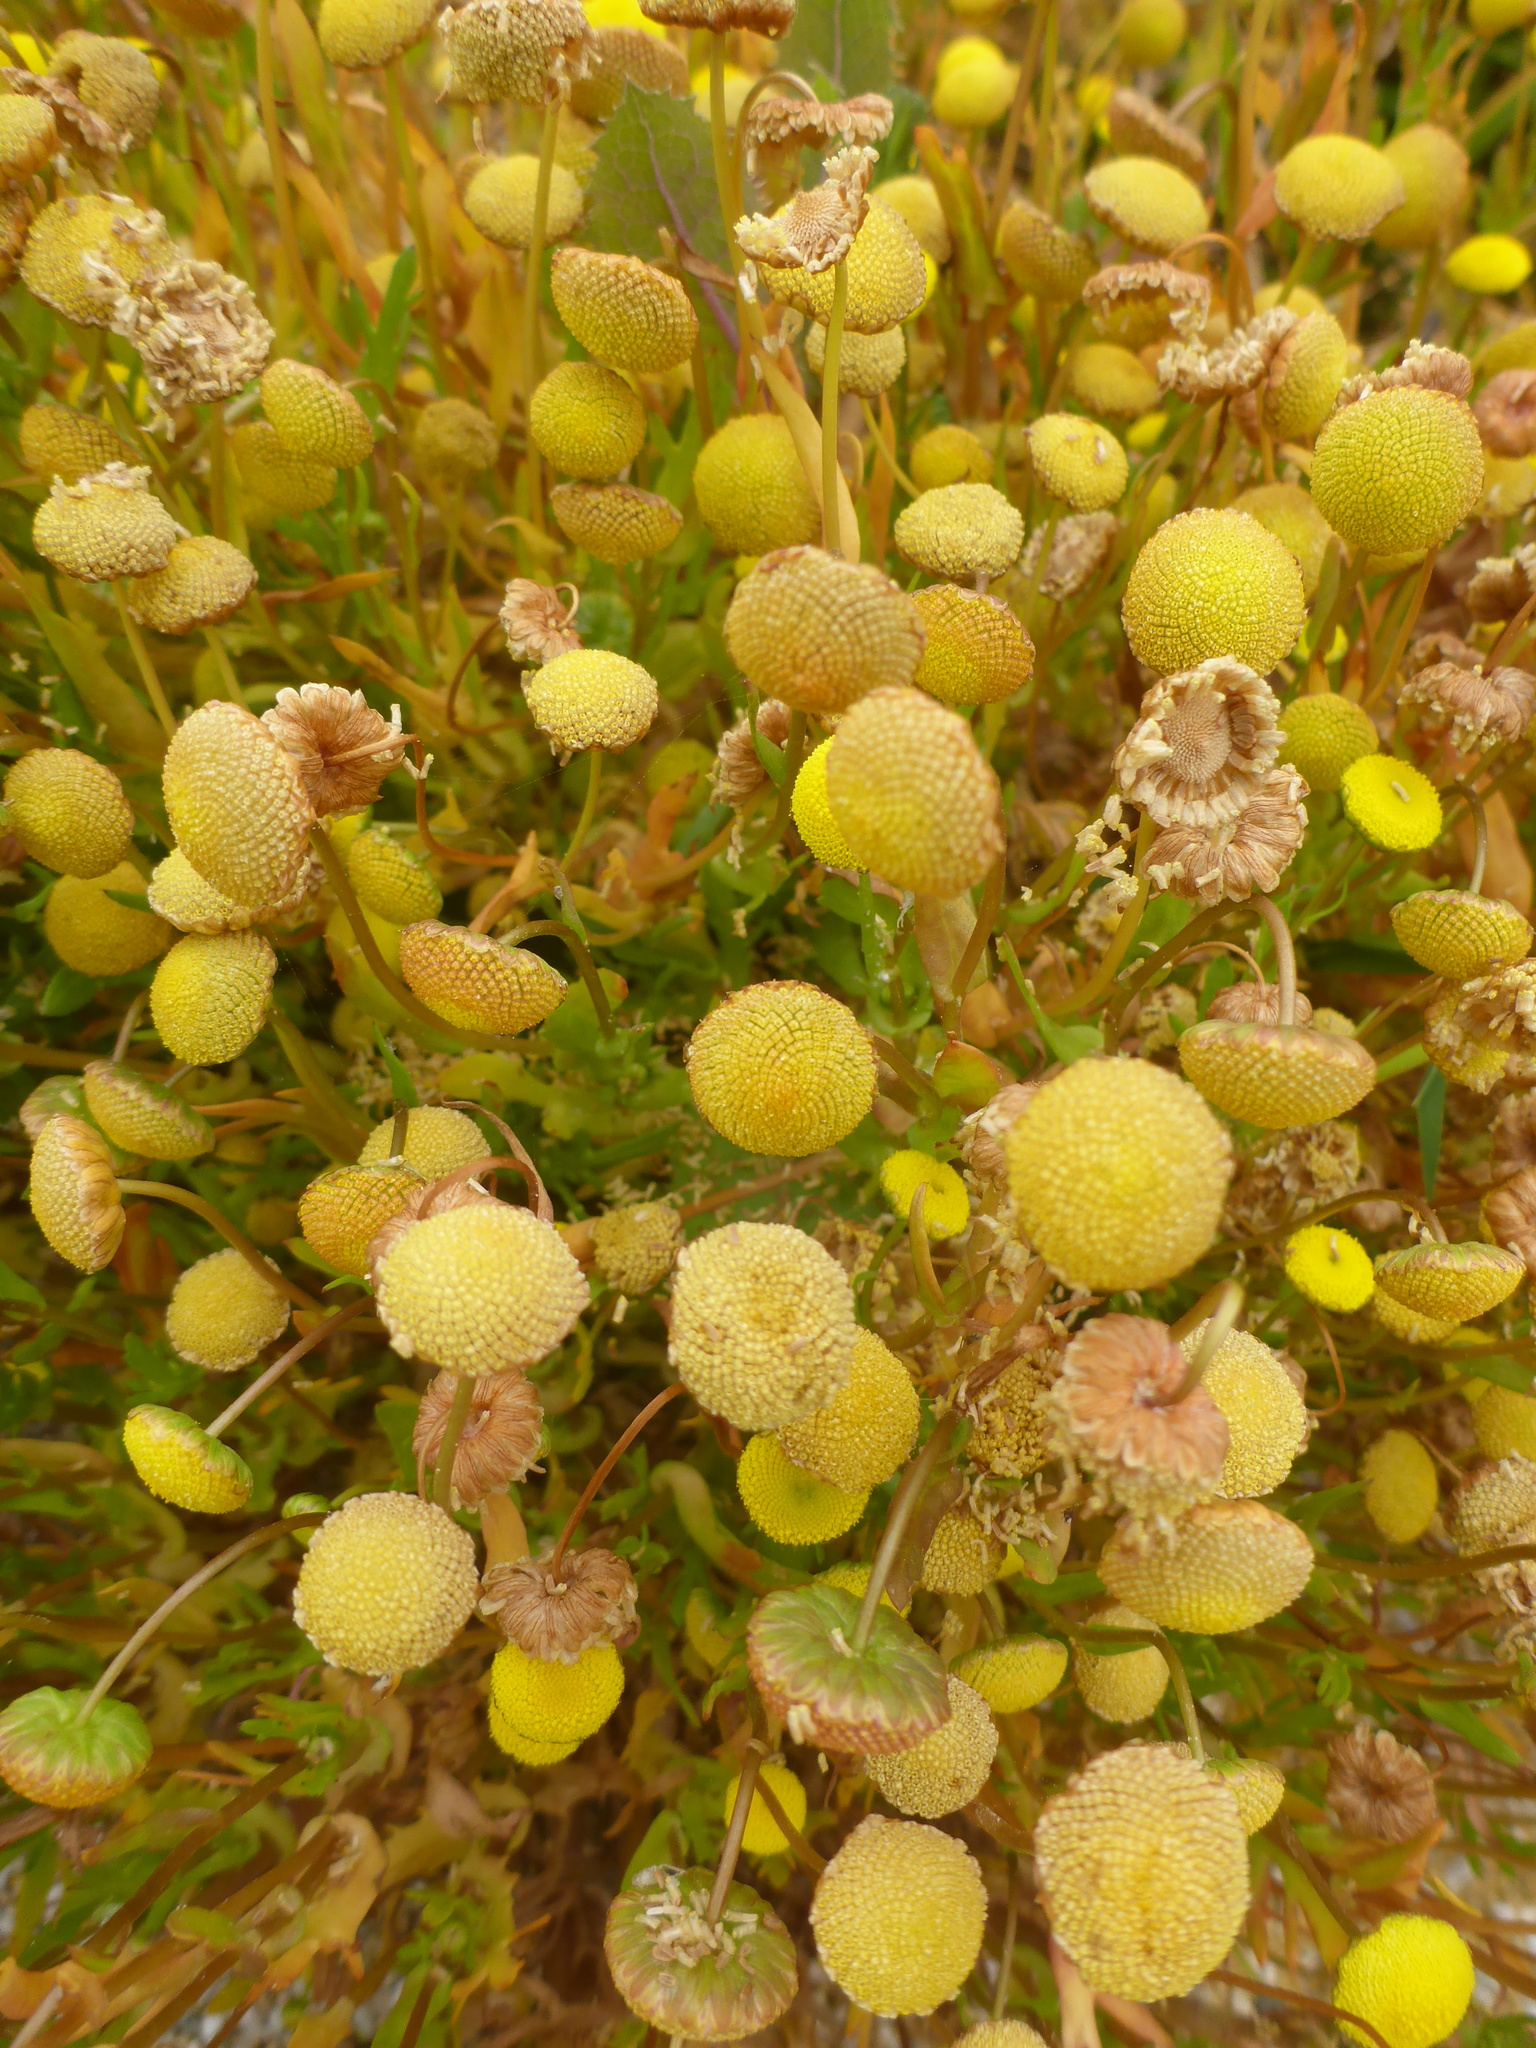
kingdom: Plantae
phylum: Tracheophyta
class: Magnoliopsida
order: Asterales
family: Asteraceae
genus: Cotula
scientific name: Cotula coronopifolia
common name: Buttonweed
